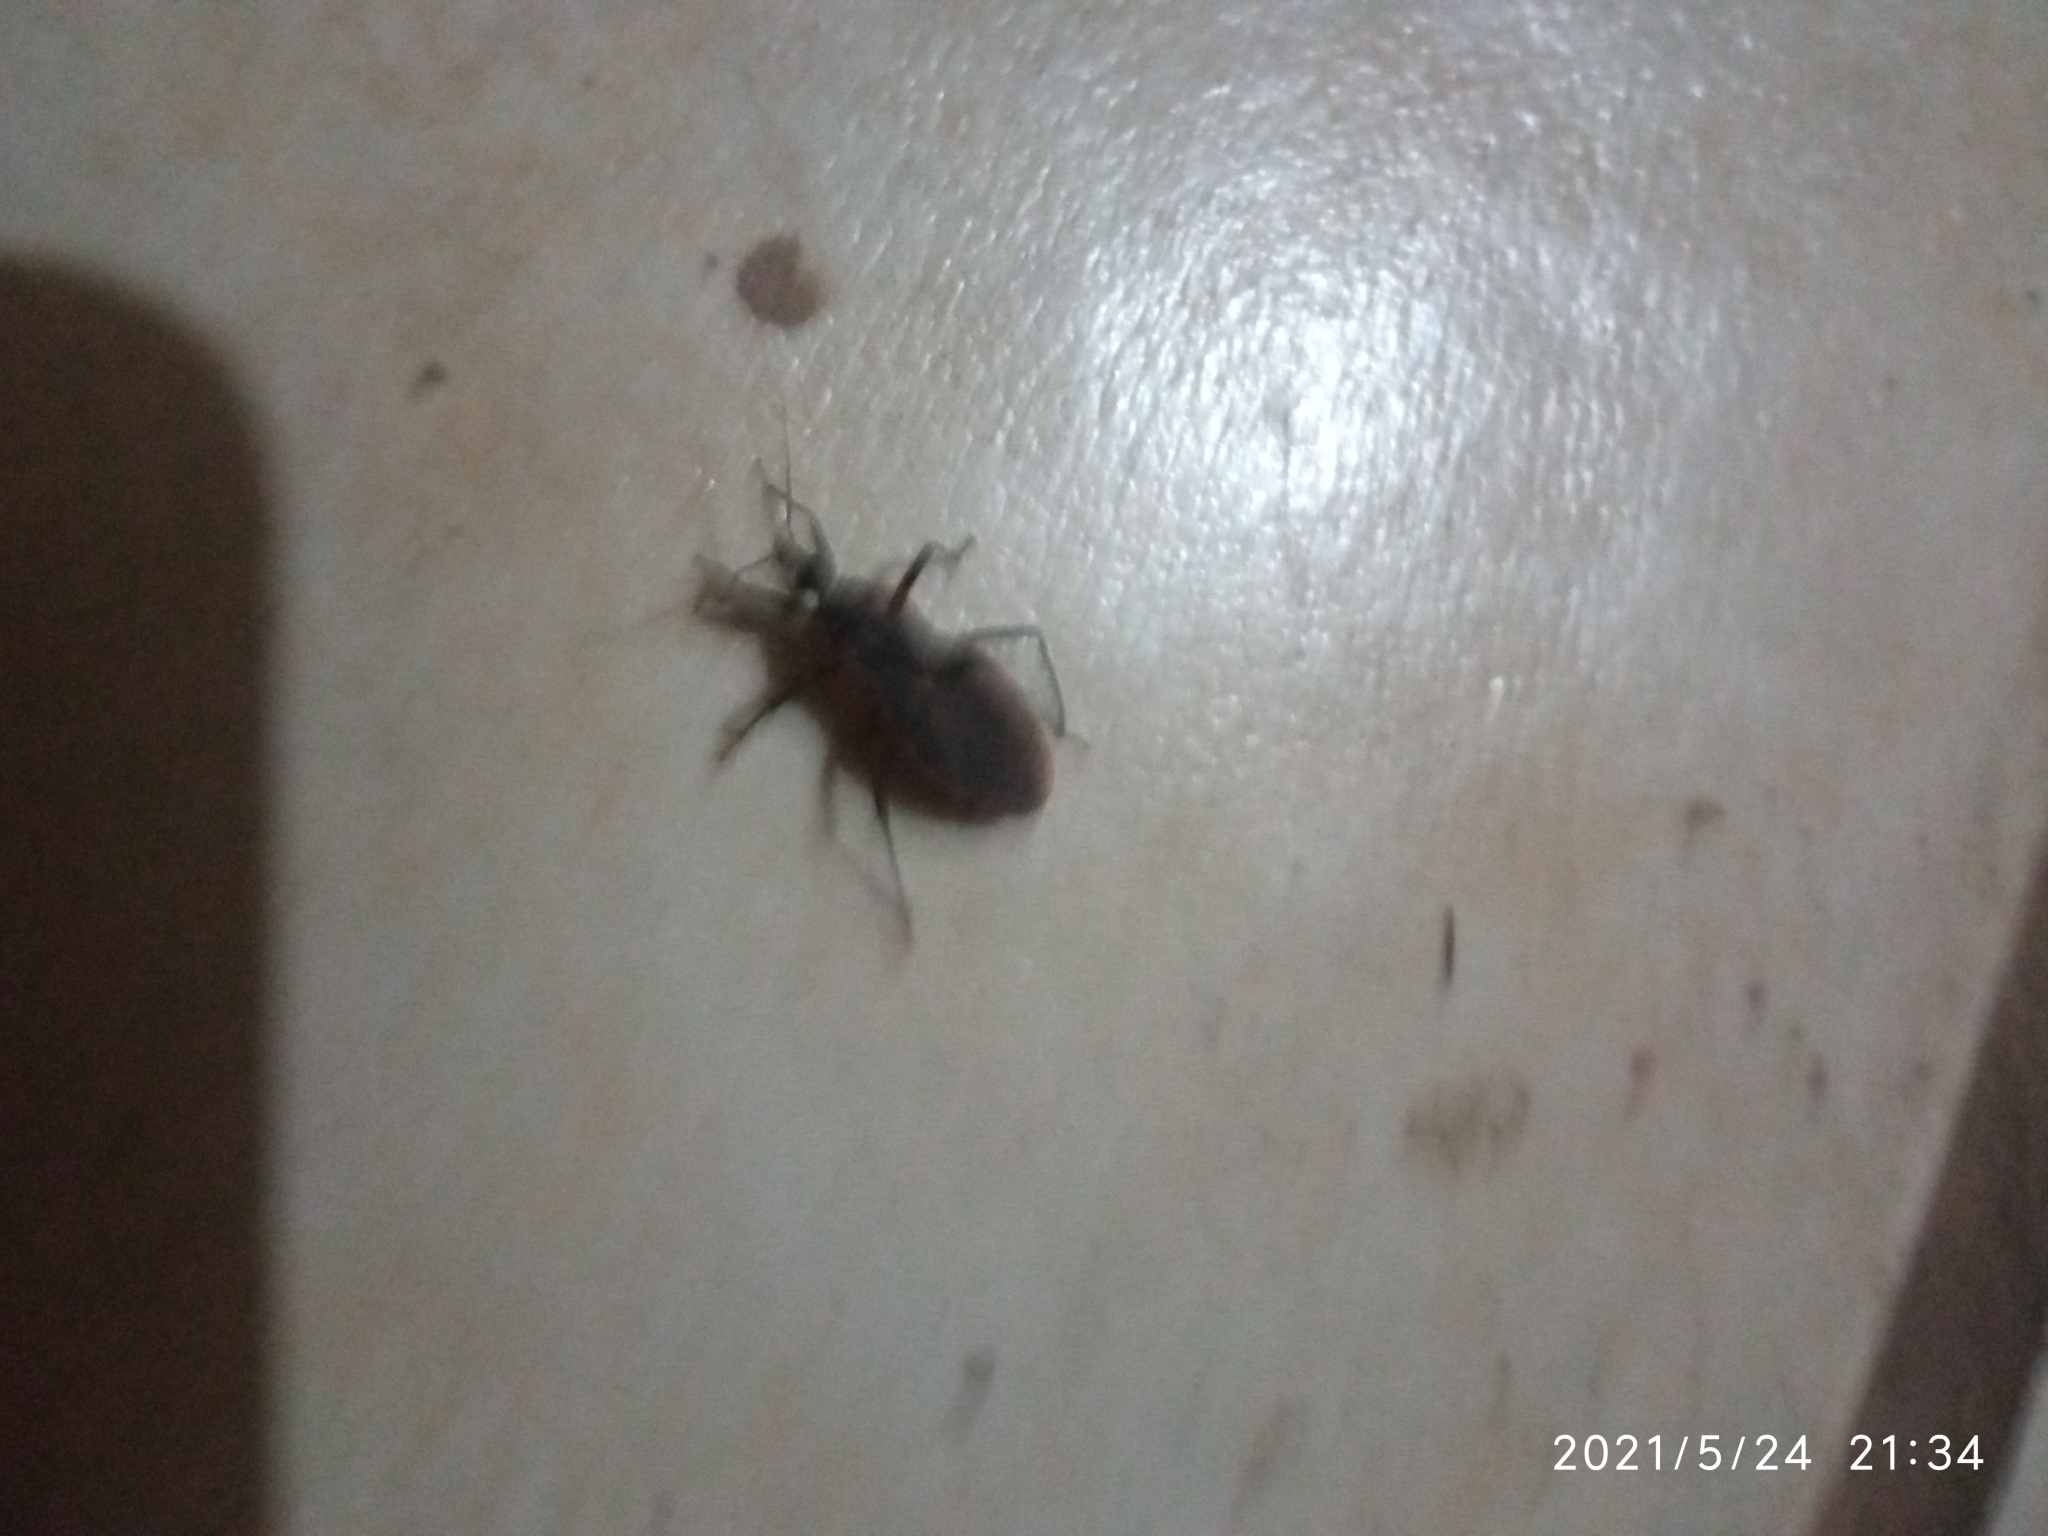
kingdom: Animalia
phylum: Arthropoda
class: Insecta
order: Hemiptera
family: Reduviidae
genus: Triatoma
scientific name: Triatoma rubida
